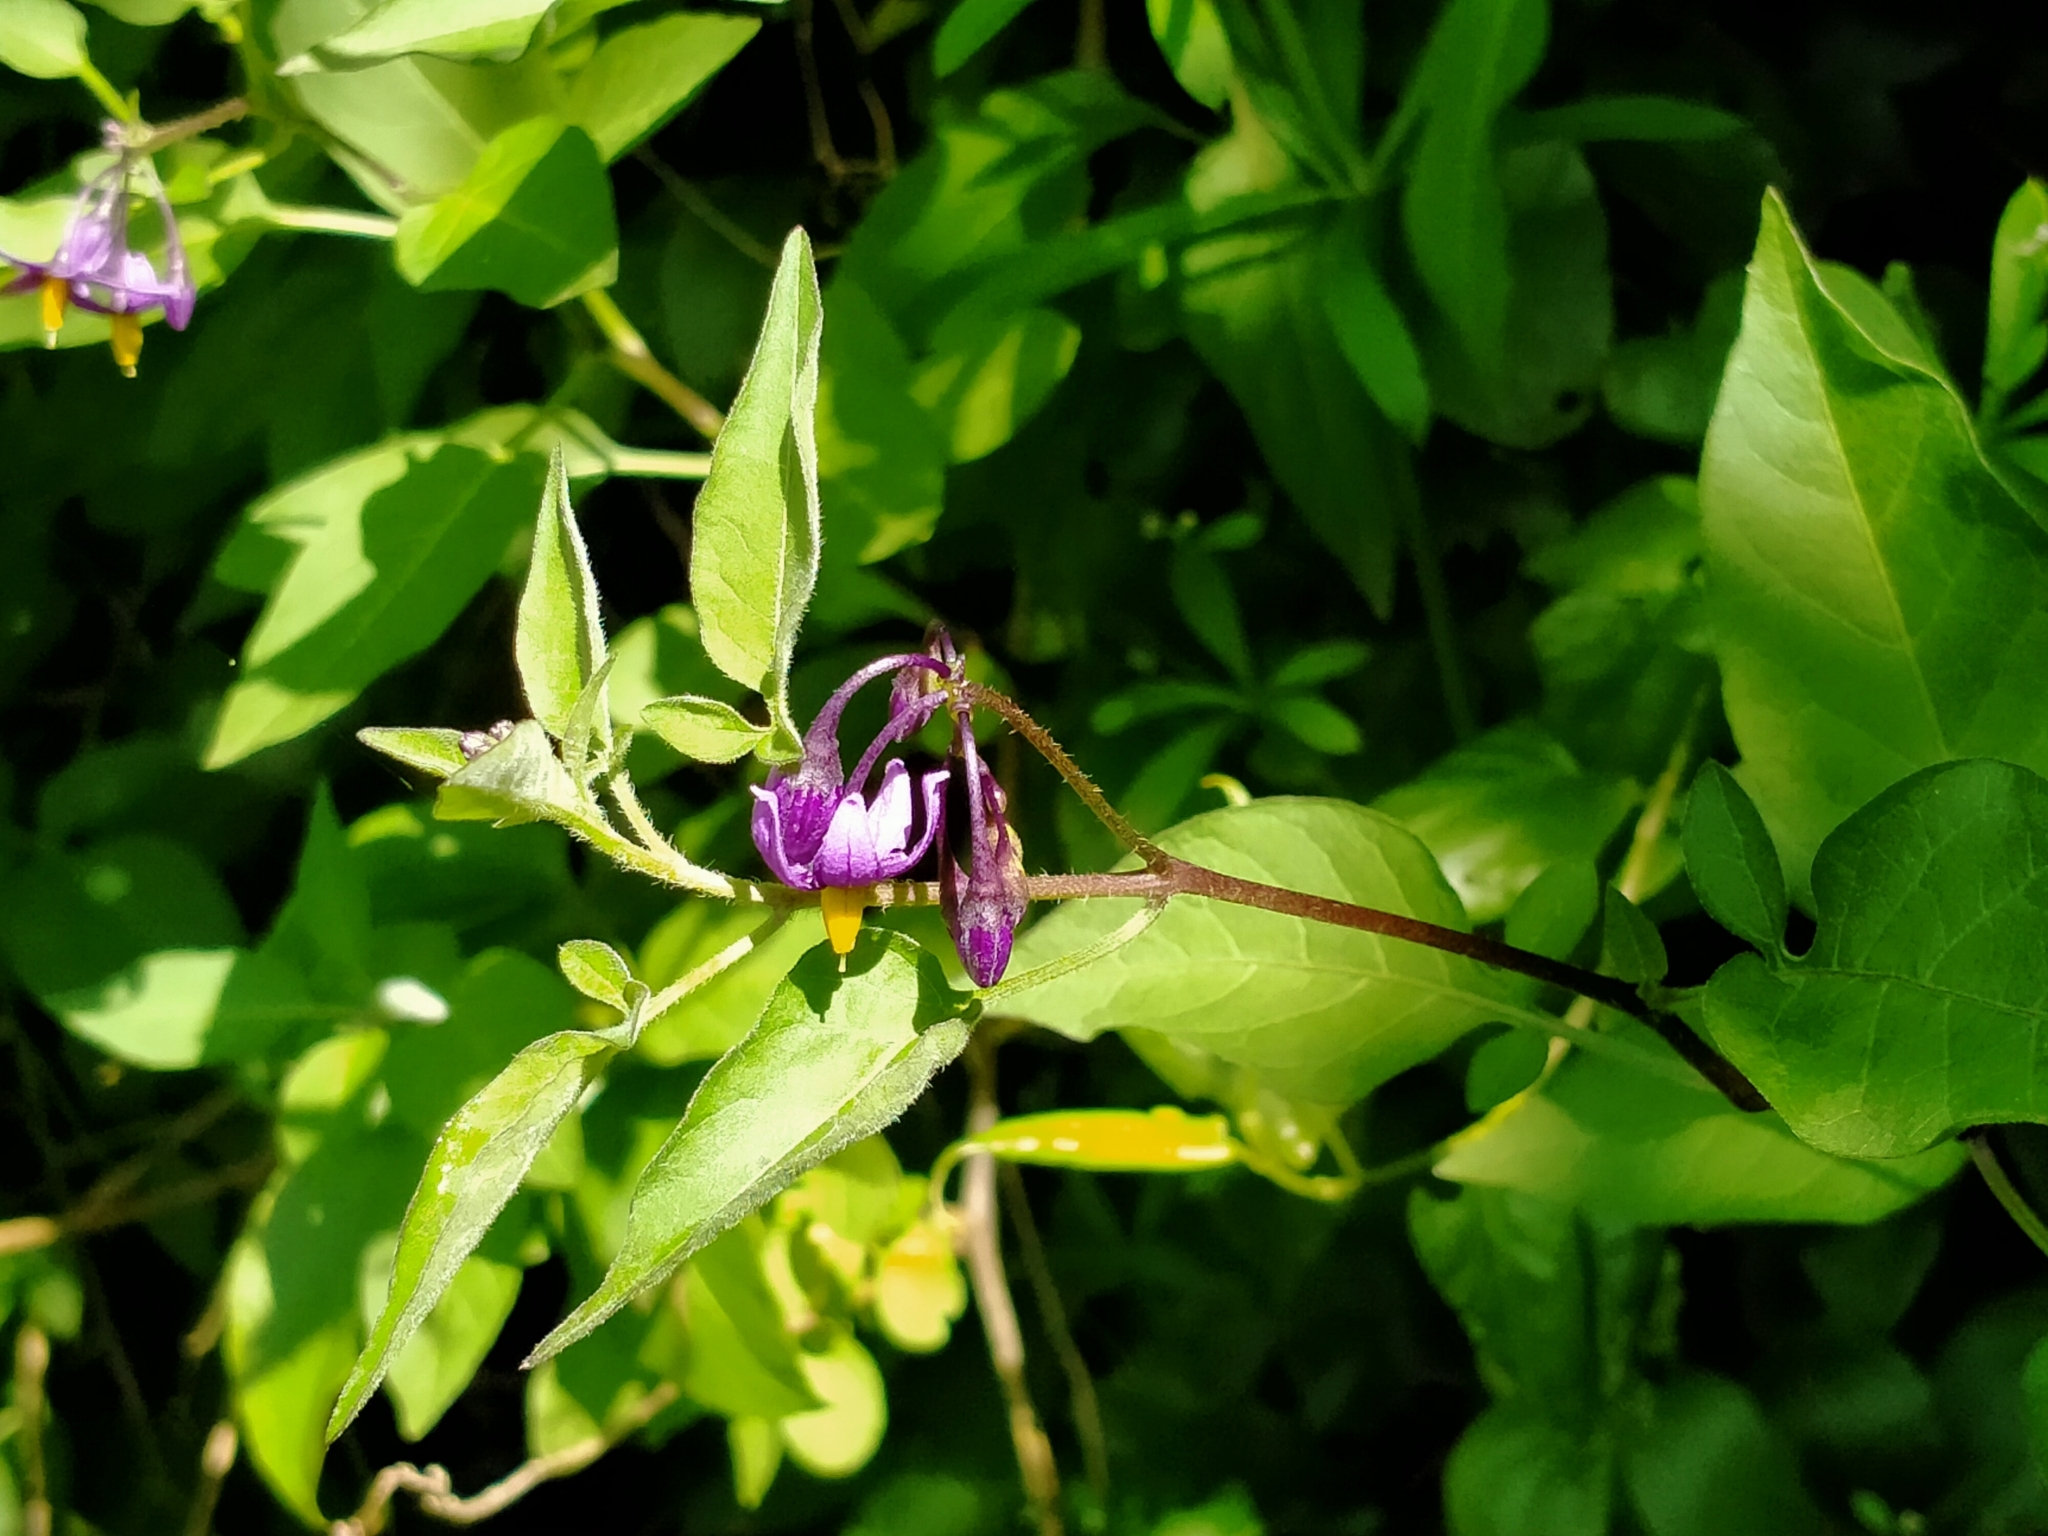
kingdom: Plantae
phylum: Tracheophyta
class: Magnoliopsida
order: Solanales
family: Solanaceae
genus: Solanum
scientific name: Solanum dulcamara
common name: Climbing nightshade
